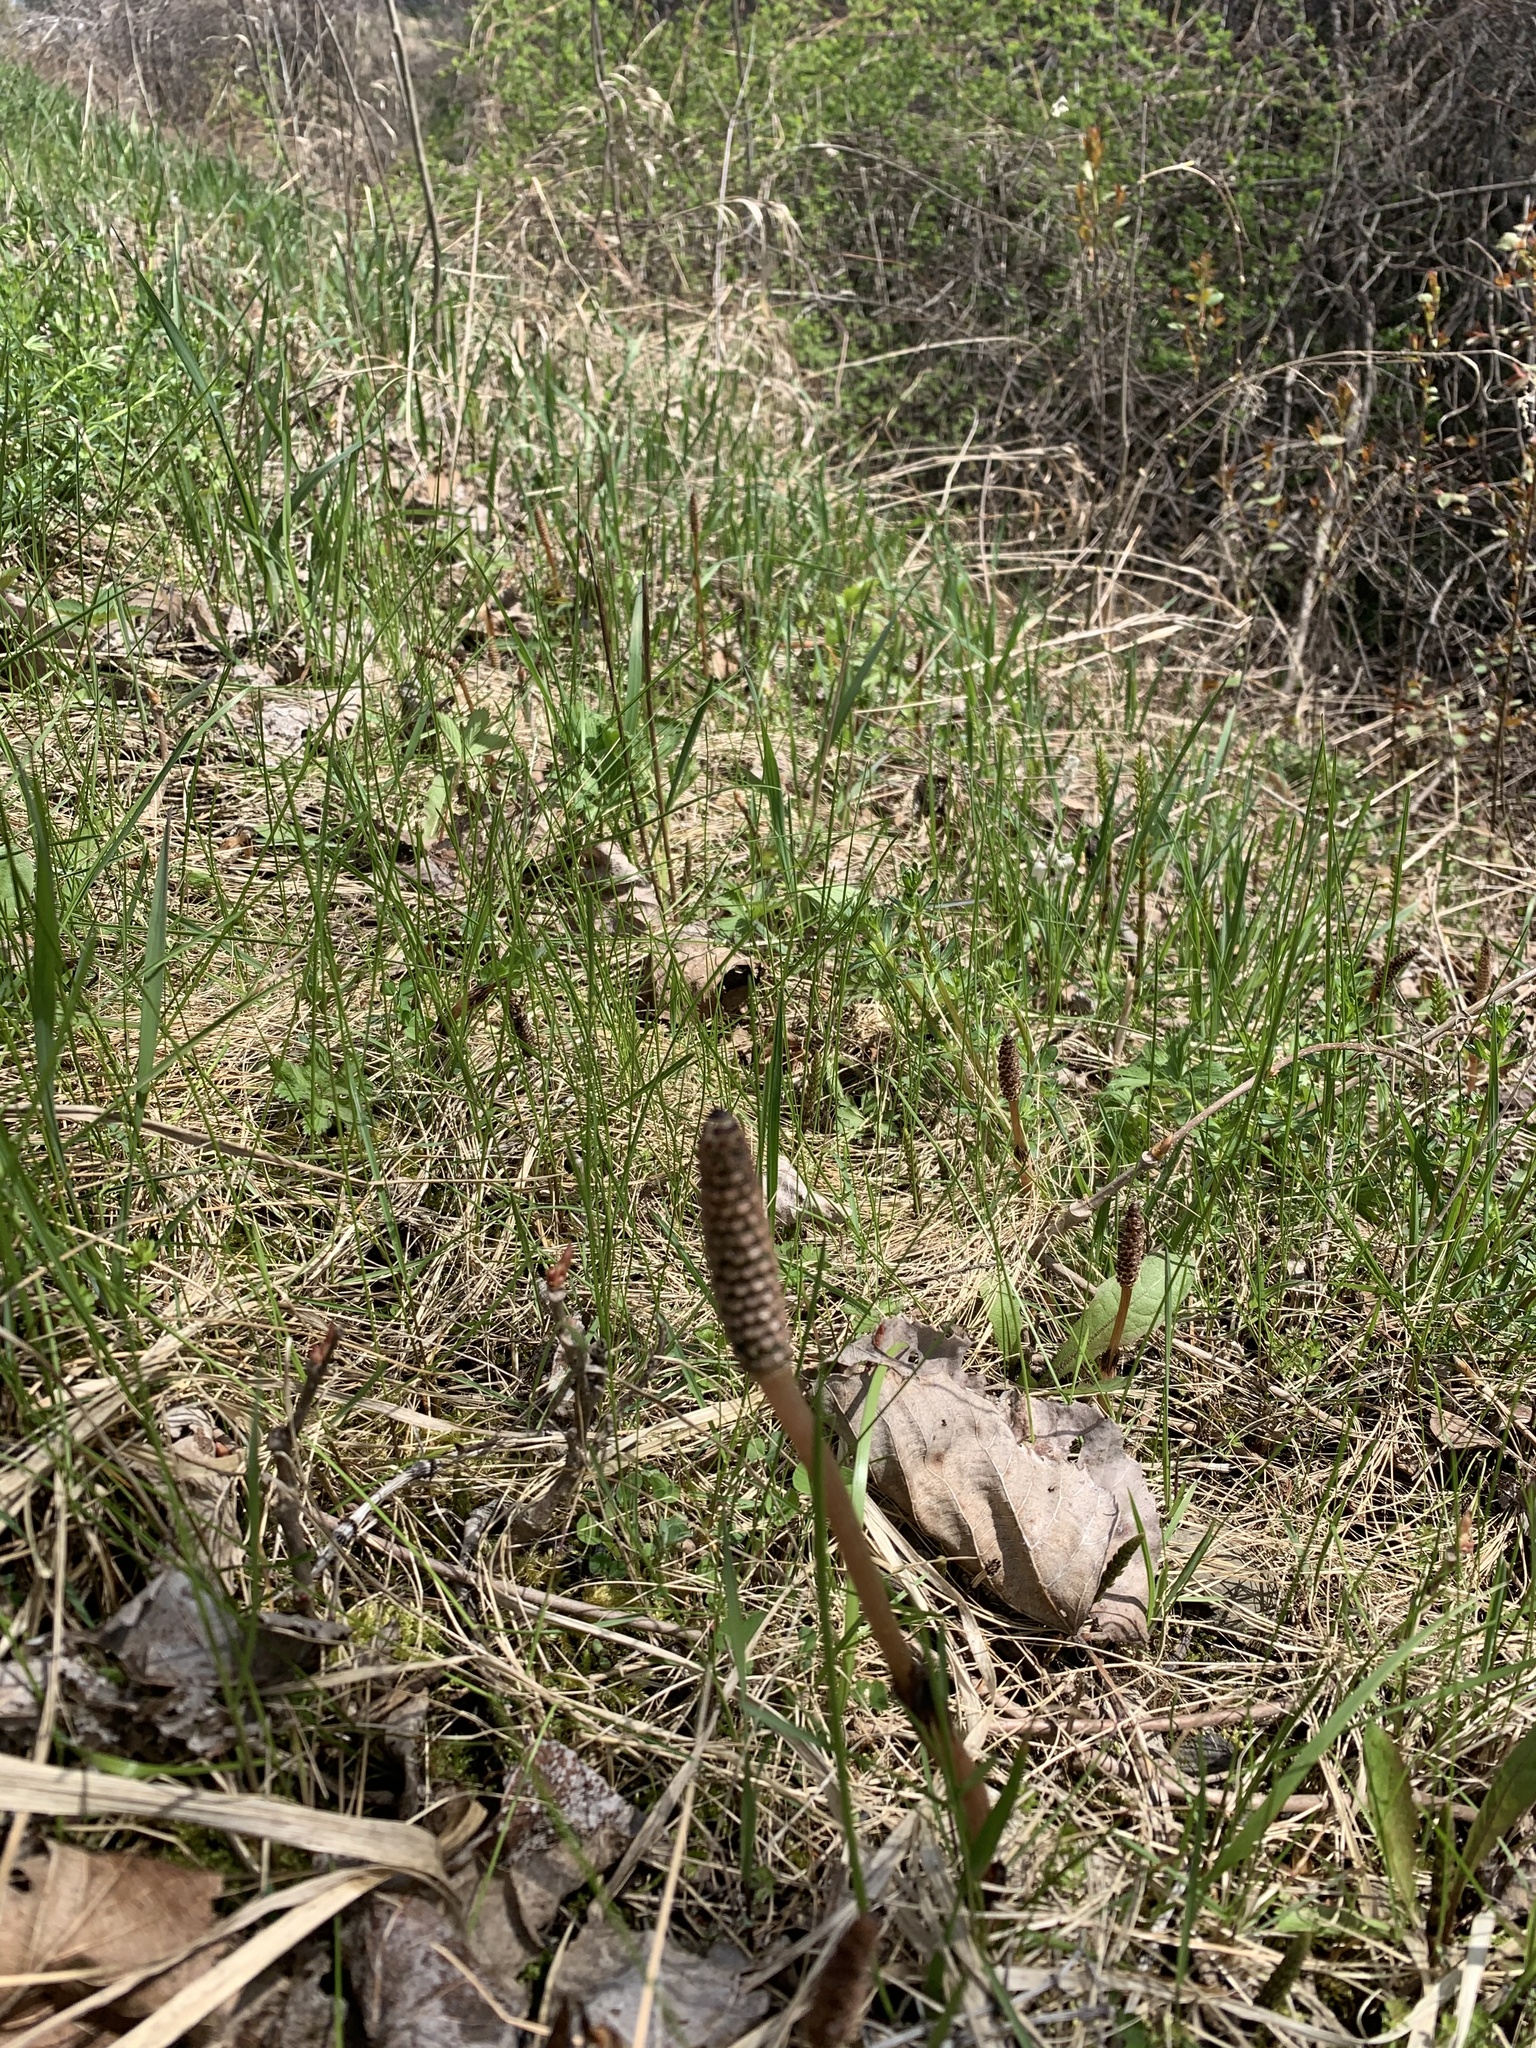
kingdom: Plantae
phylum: Tracheophyta
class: Polypodiopsida
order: Equisetales
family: Equisetaceae
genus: Equisetum
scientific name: Equisetum arvense
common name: Field horsetail
